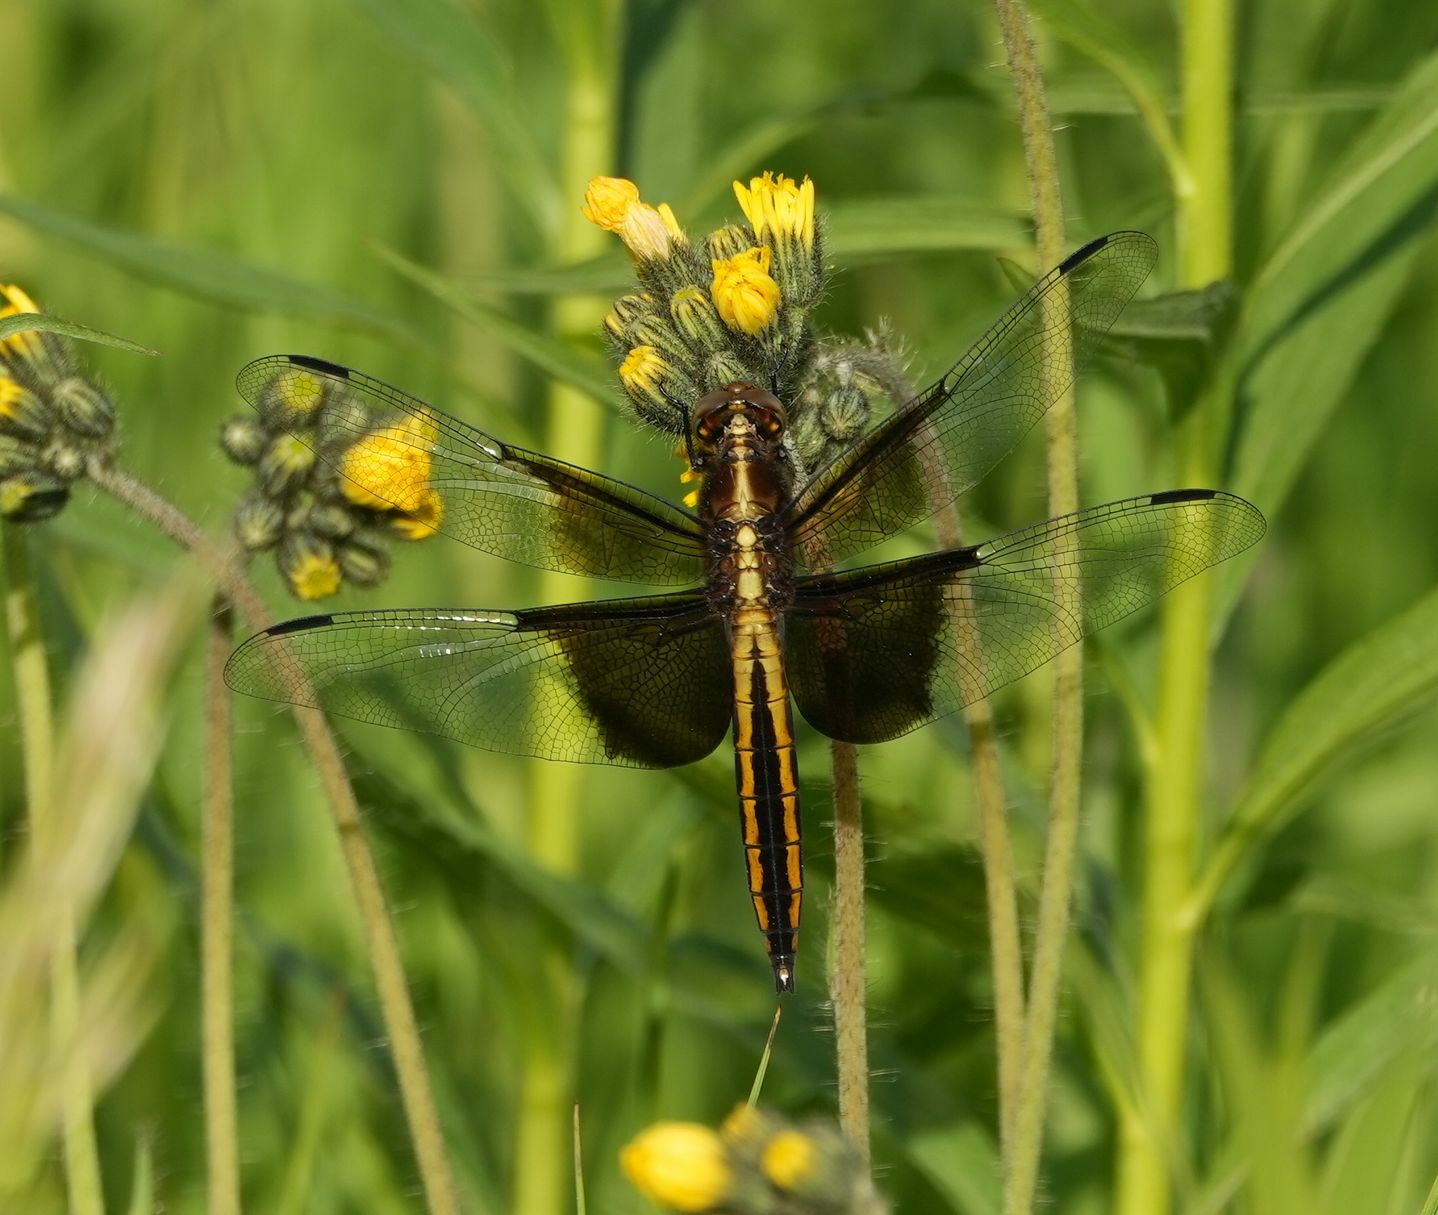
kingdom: Animalia
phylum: Arthropoda
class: Insecta
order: Odonata
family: Libellulidae
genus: Libellula
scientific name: Libellula luctuosa
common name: Widow skimmer
